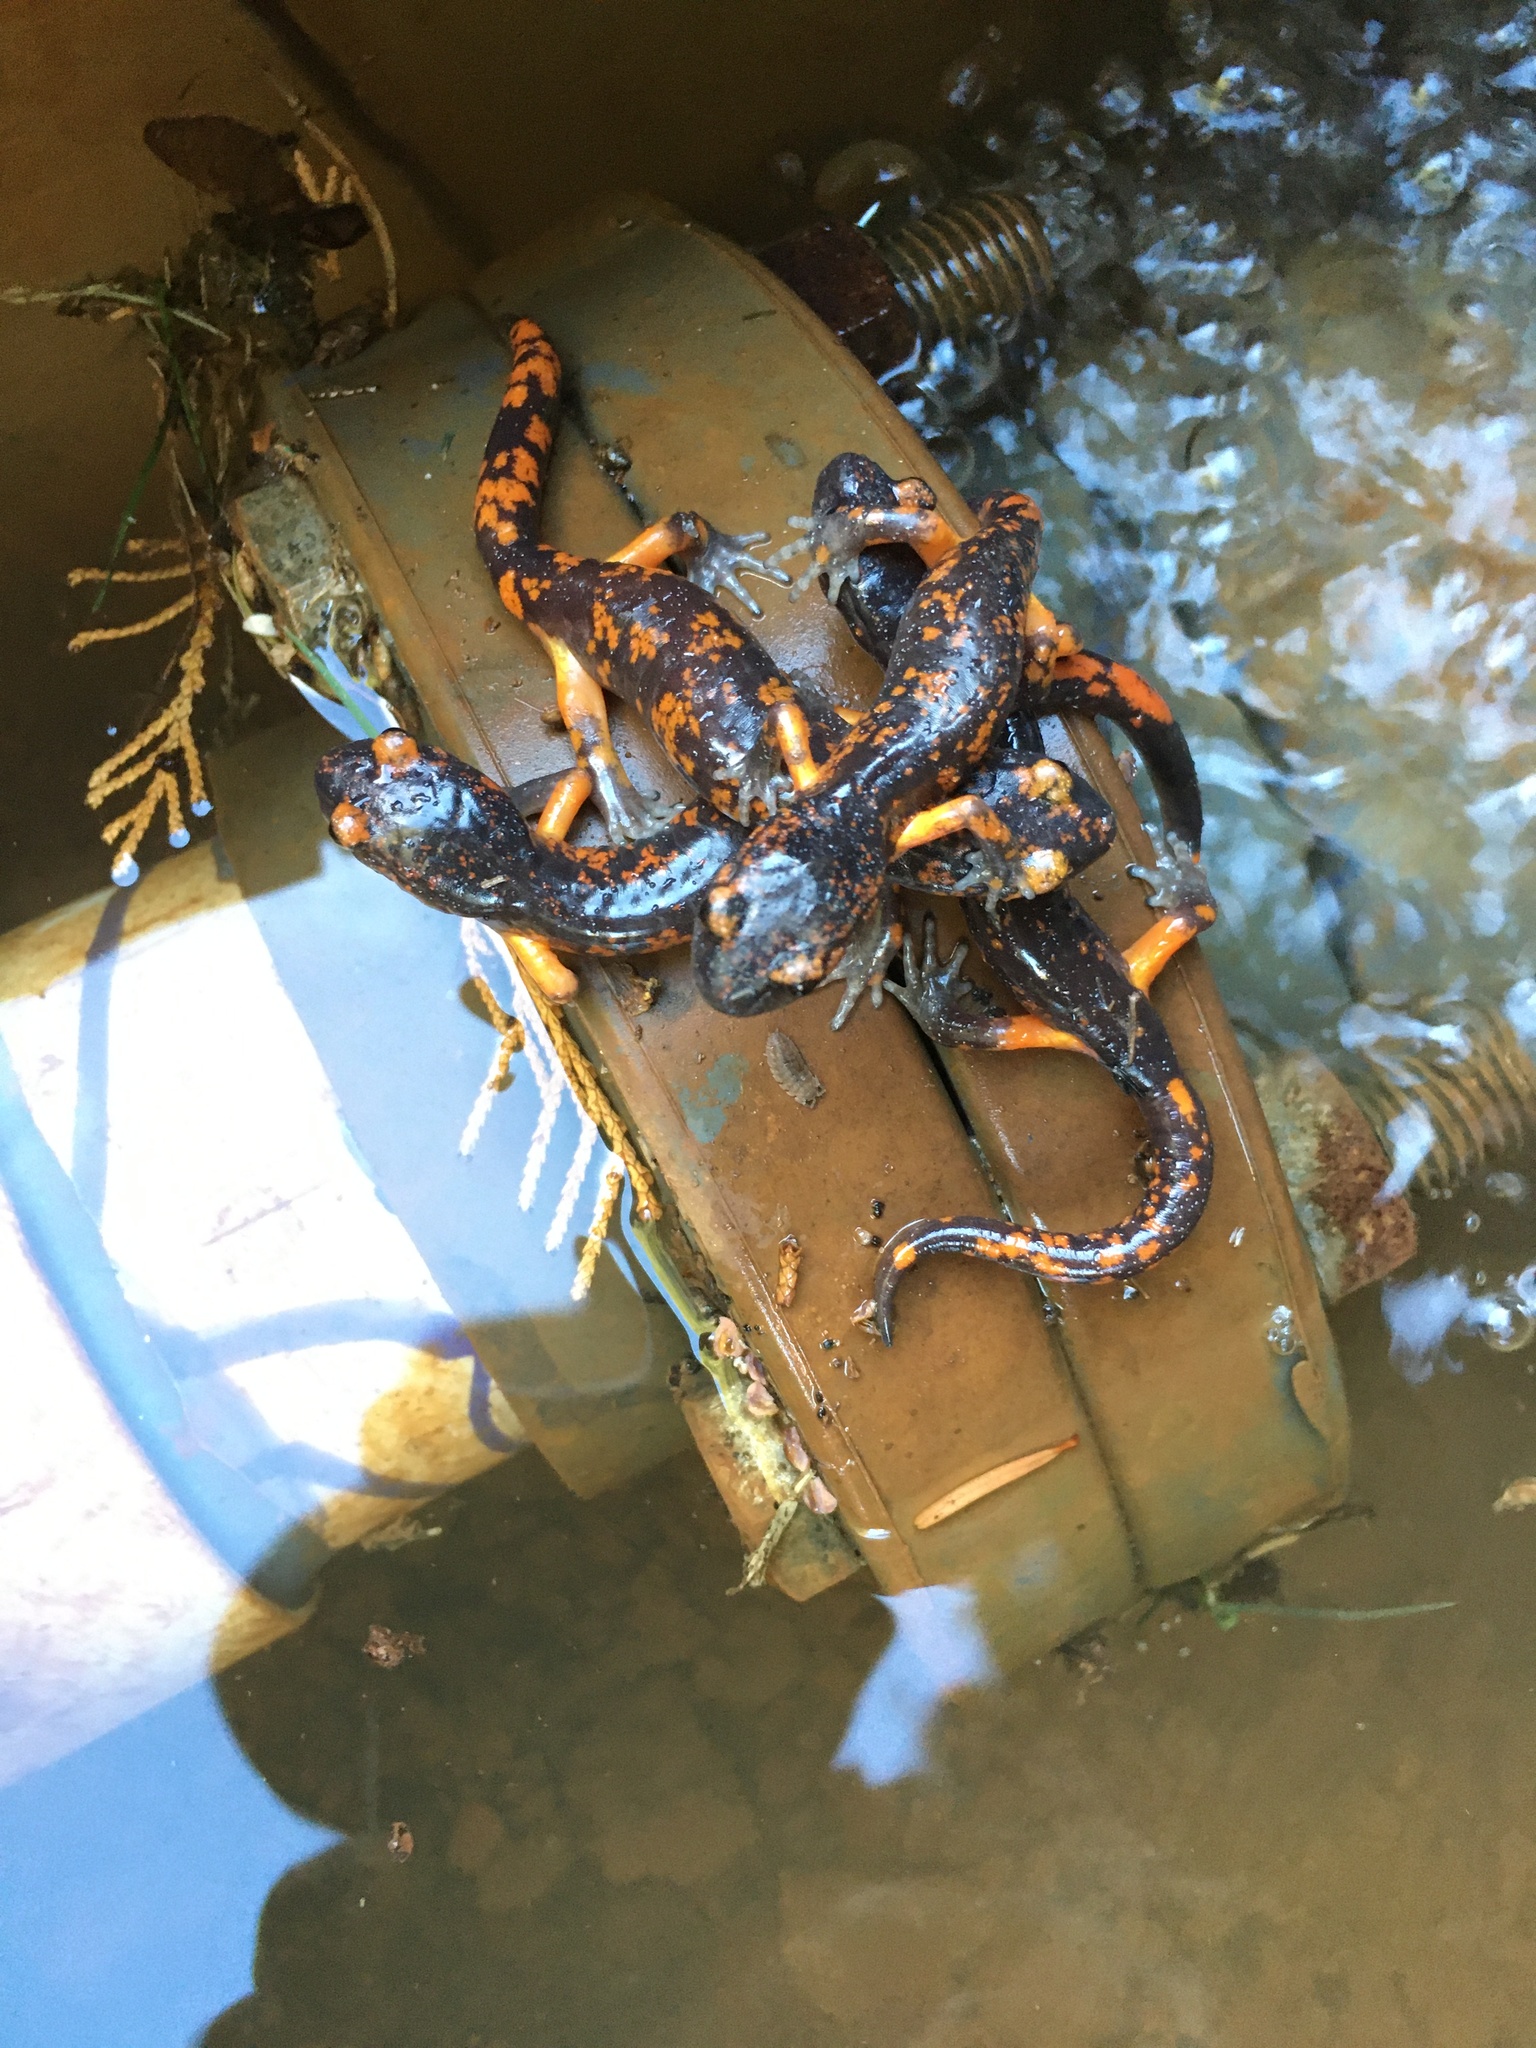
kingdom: Animalia
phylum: Chordata
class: Amphibia
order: Caudata
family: Plethodontidae
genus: Ensatina
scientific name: Ensatina eschscholtzii
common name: Ensatina
